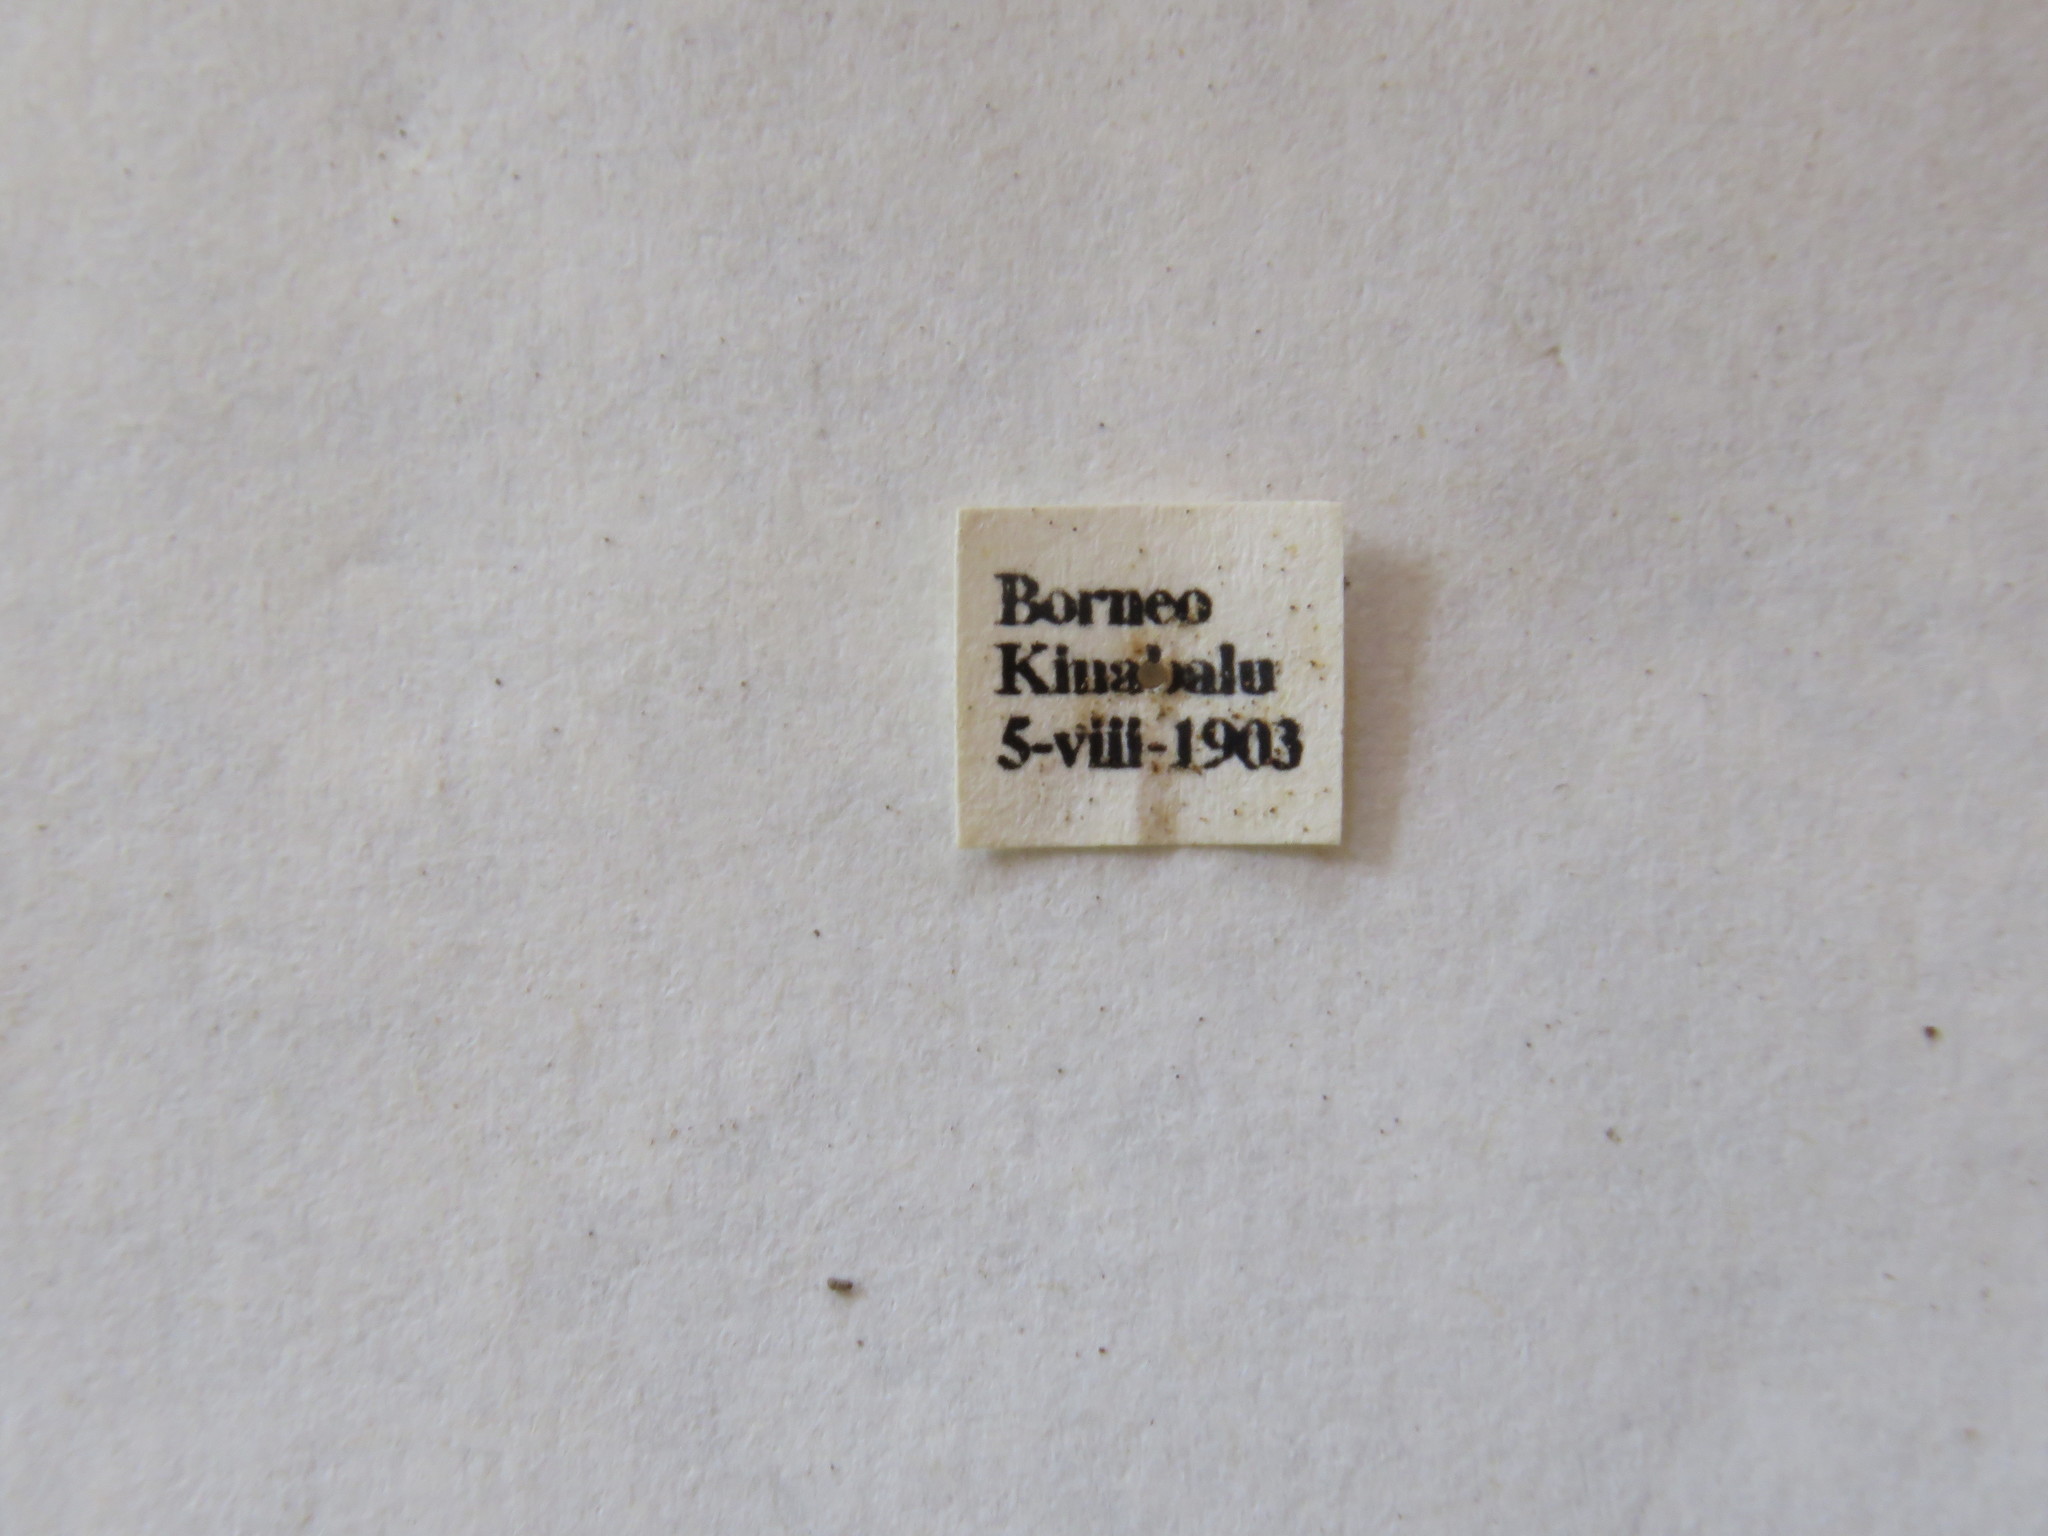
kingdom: Animalia
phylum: Arthropoda
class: Insecta
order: Coleoptera
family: Chrysomelidae
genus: Sagra
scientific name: Sagra femorata
